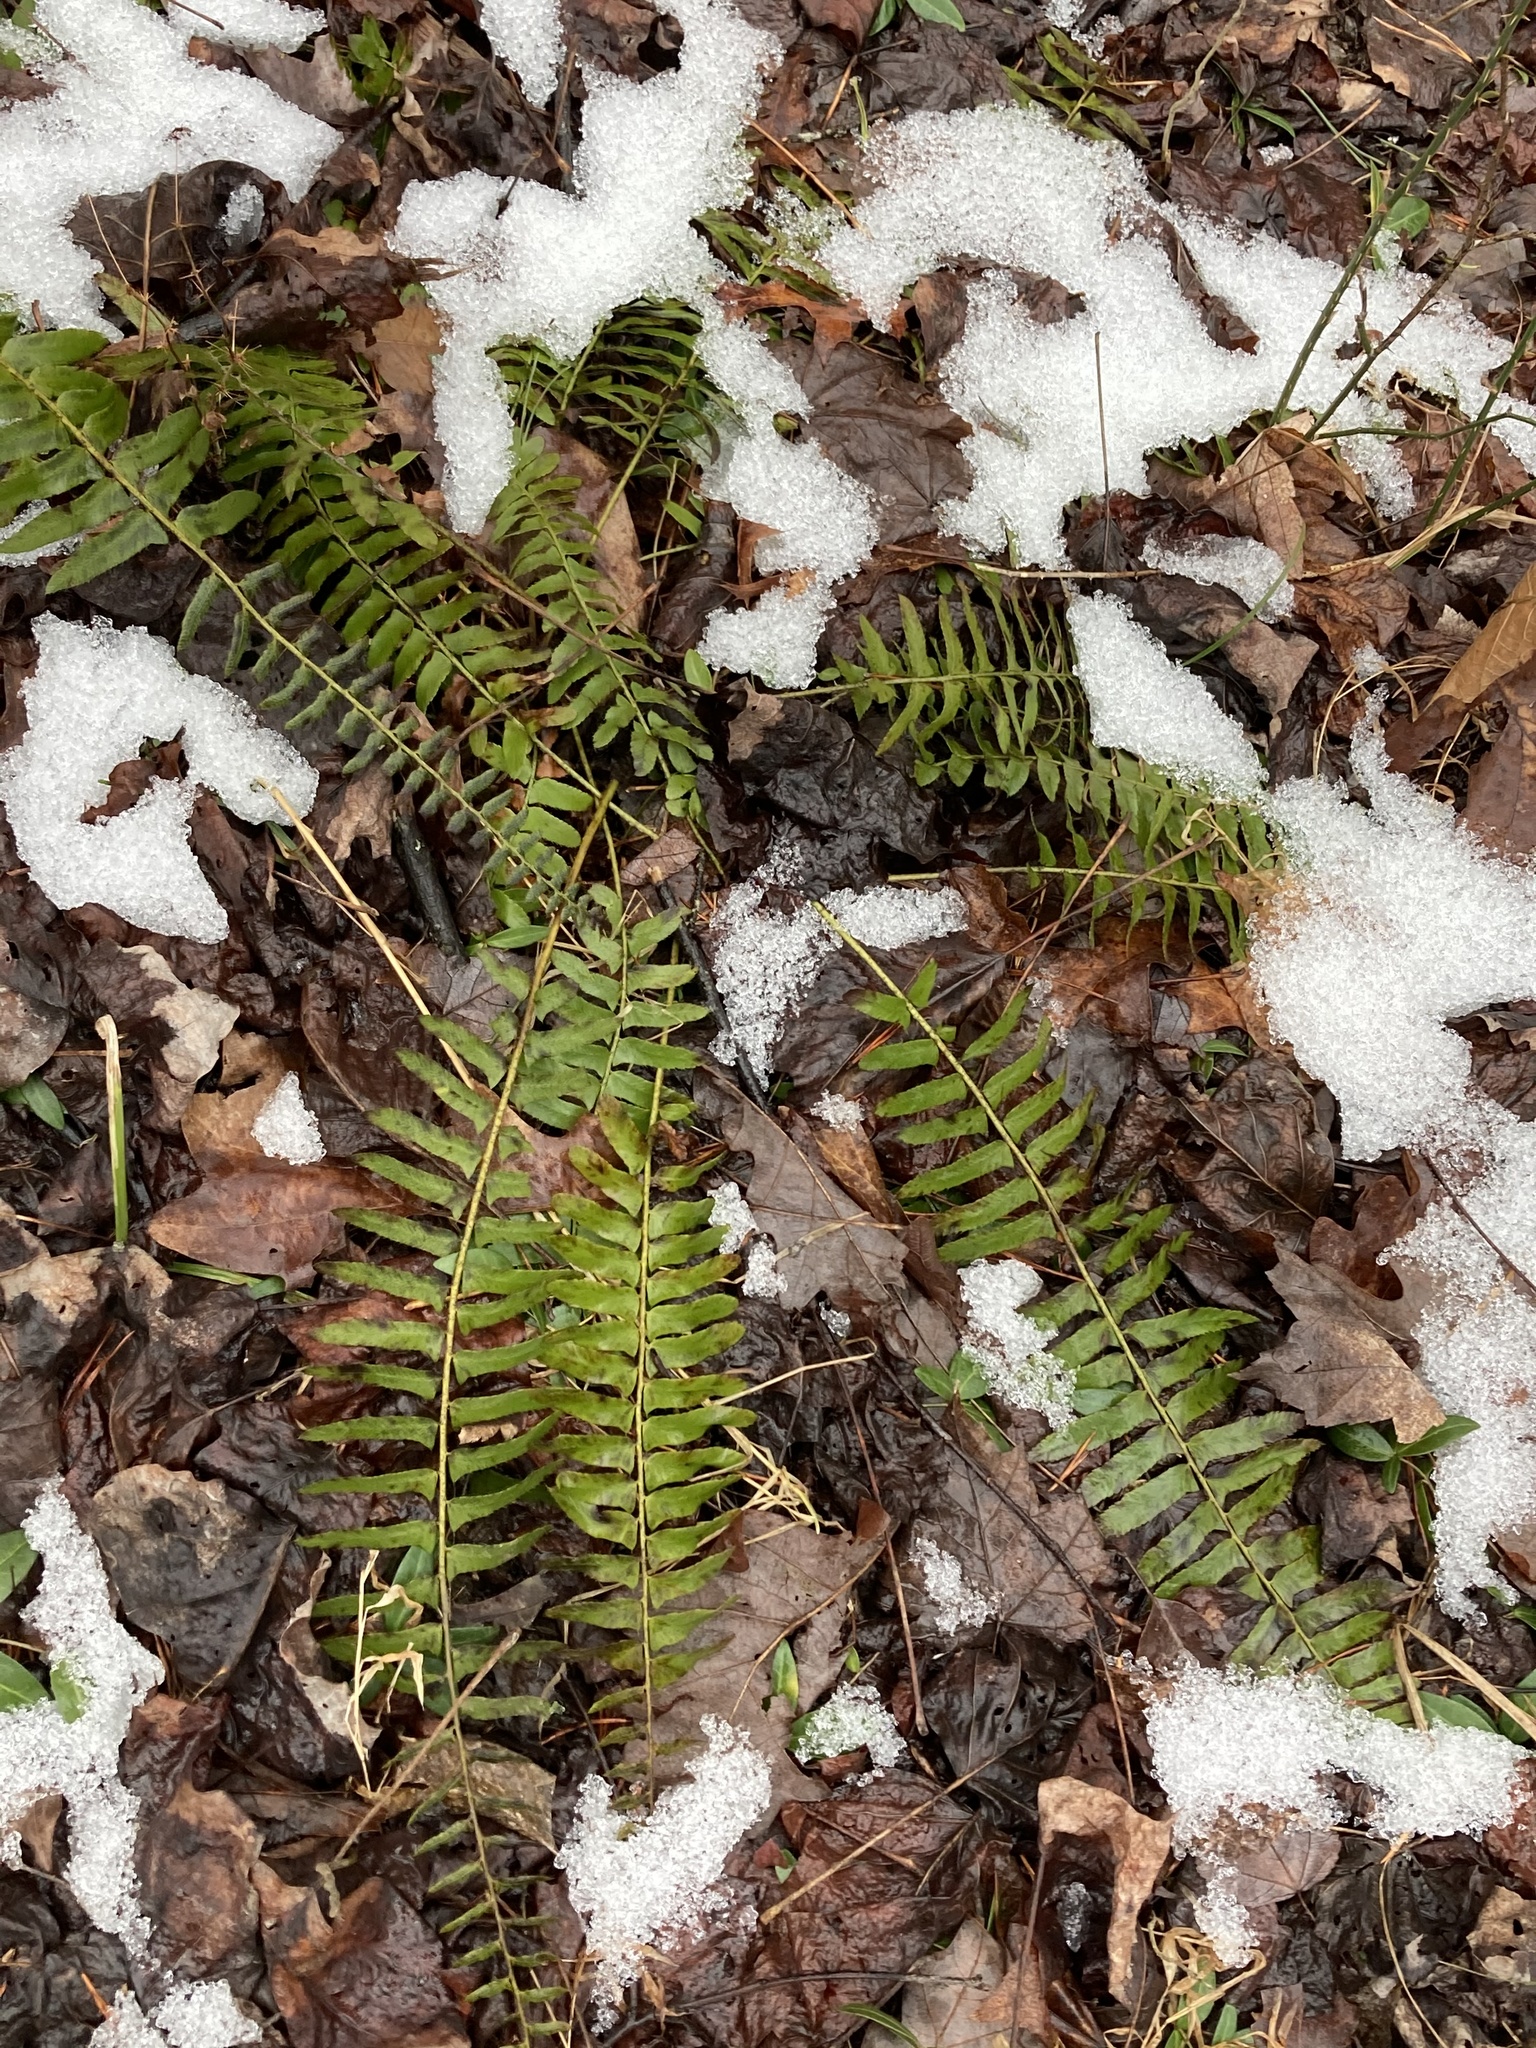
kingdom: Plantae
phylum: Tracheophyta
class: Polypodiopsida
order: Polypodiales
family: Dryopteridaceae
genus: Polystichum
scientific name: Polystichum acrostichoides
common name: Christmas fern
